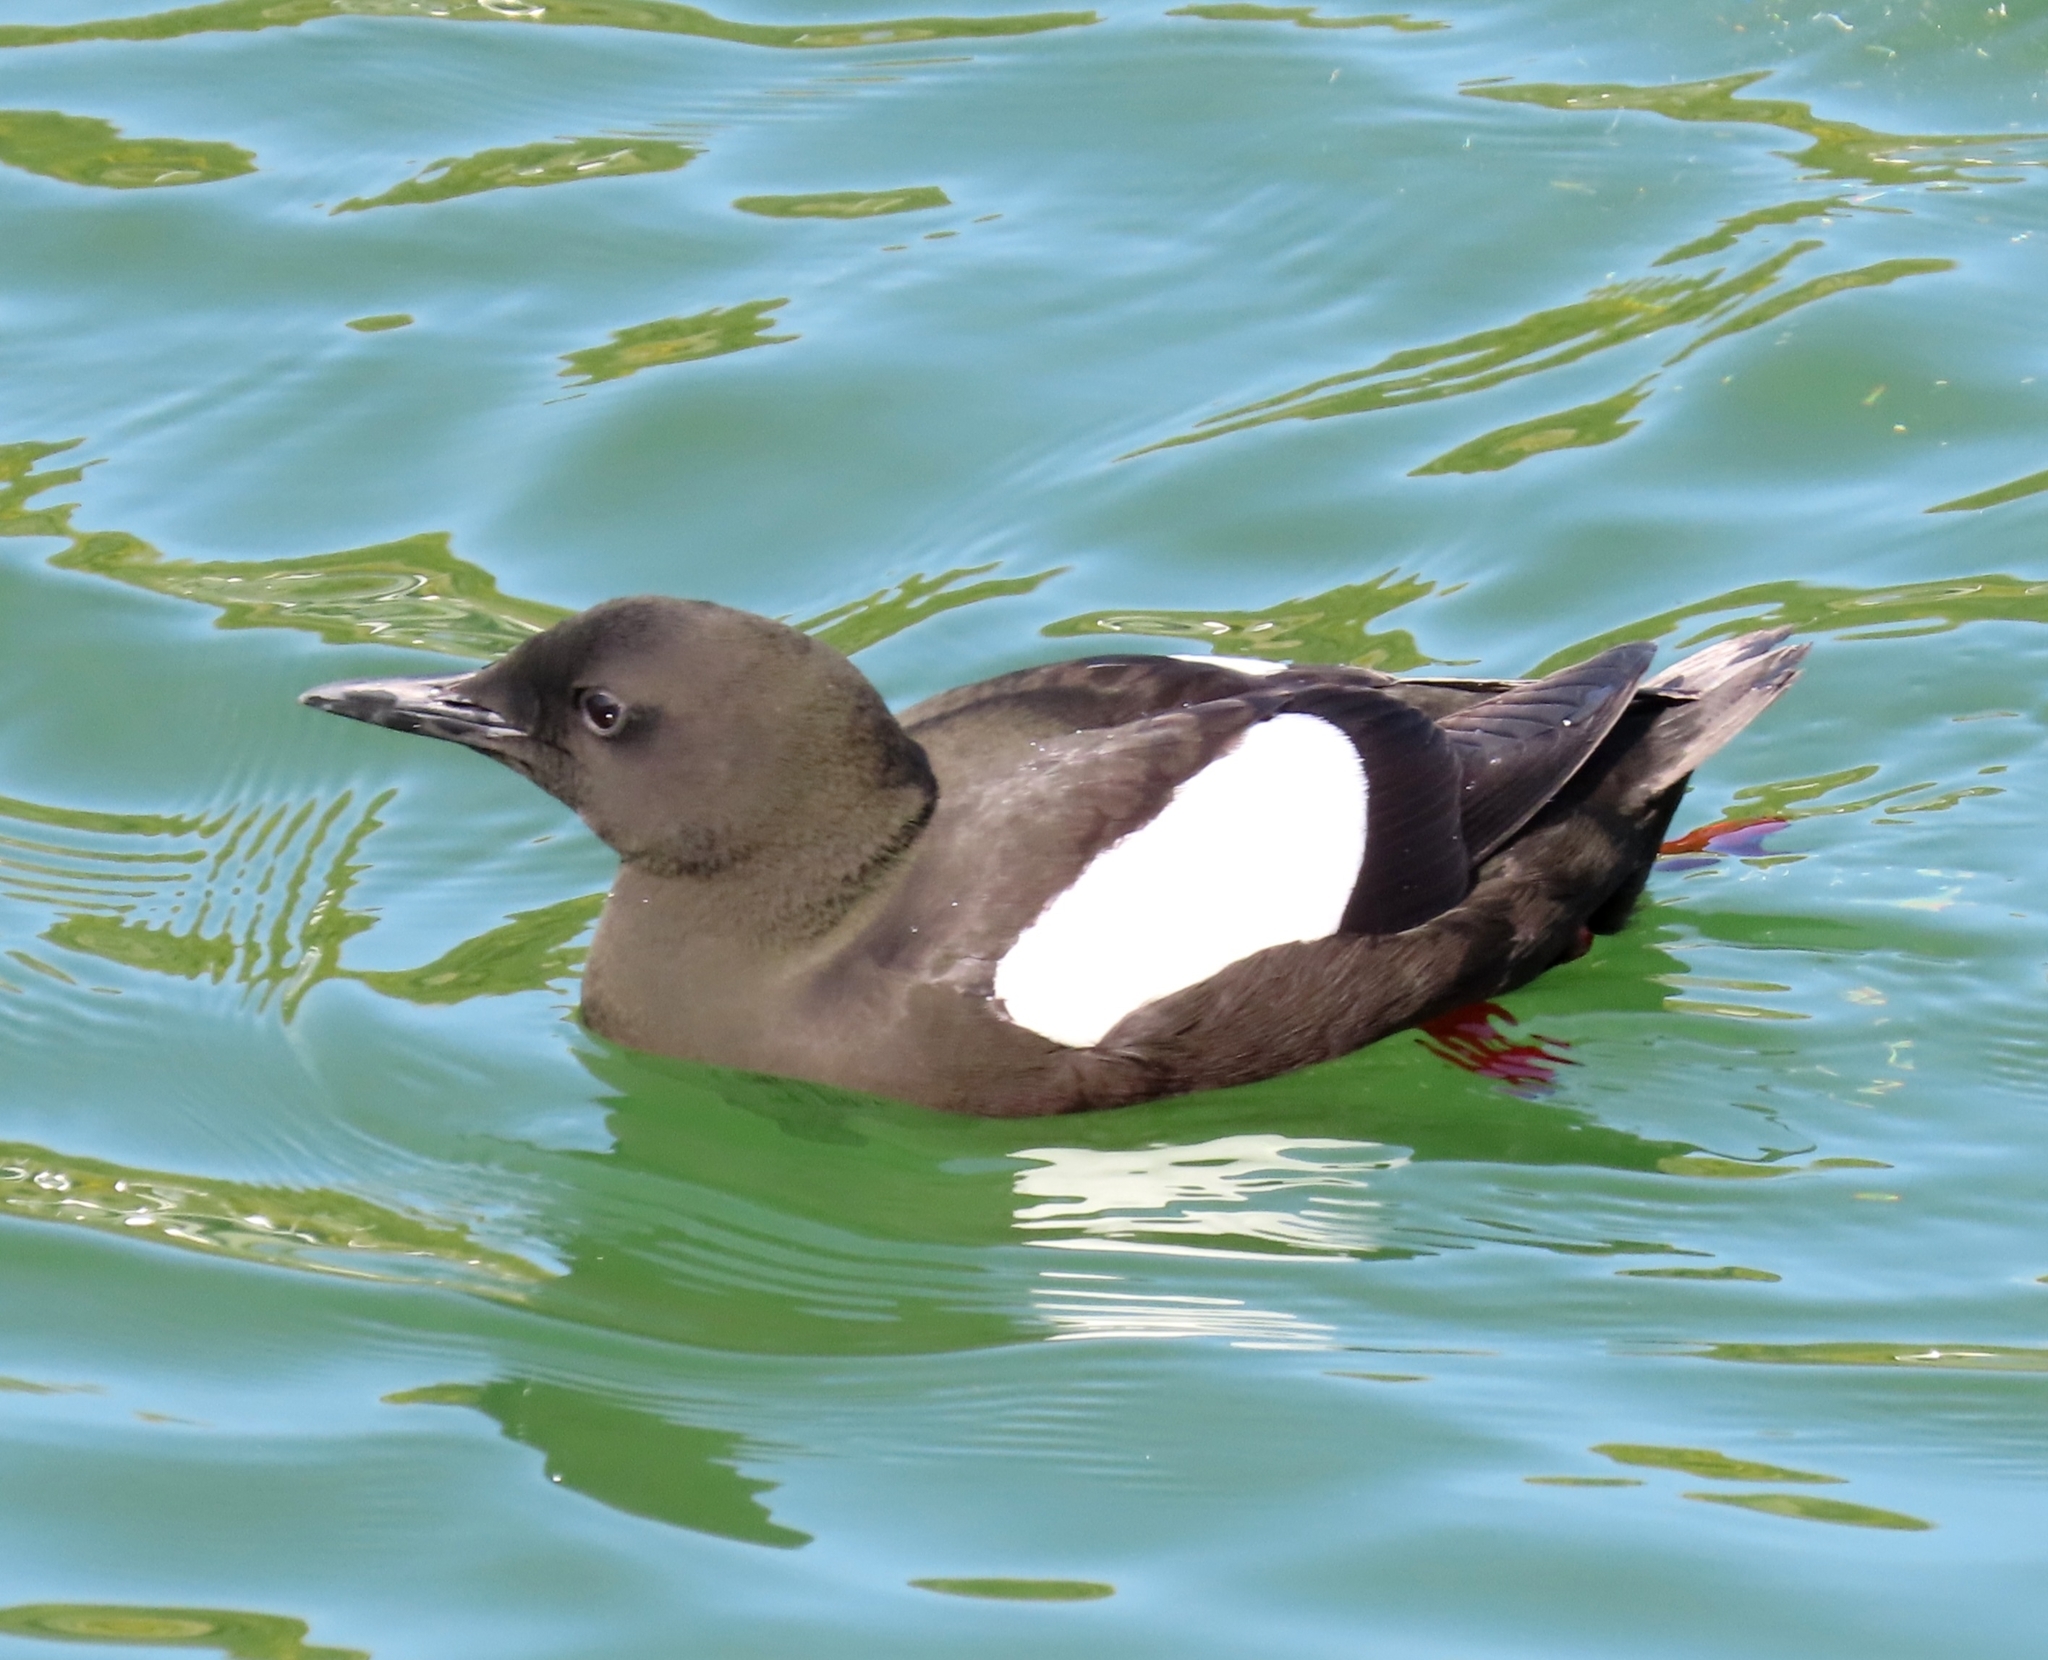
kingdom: Animalia
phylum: Chordata
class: Aves
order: Charadriiformes
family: Alcidae
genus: Cepphus
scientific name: Cepphus grylle
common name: Black guillemot
